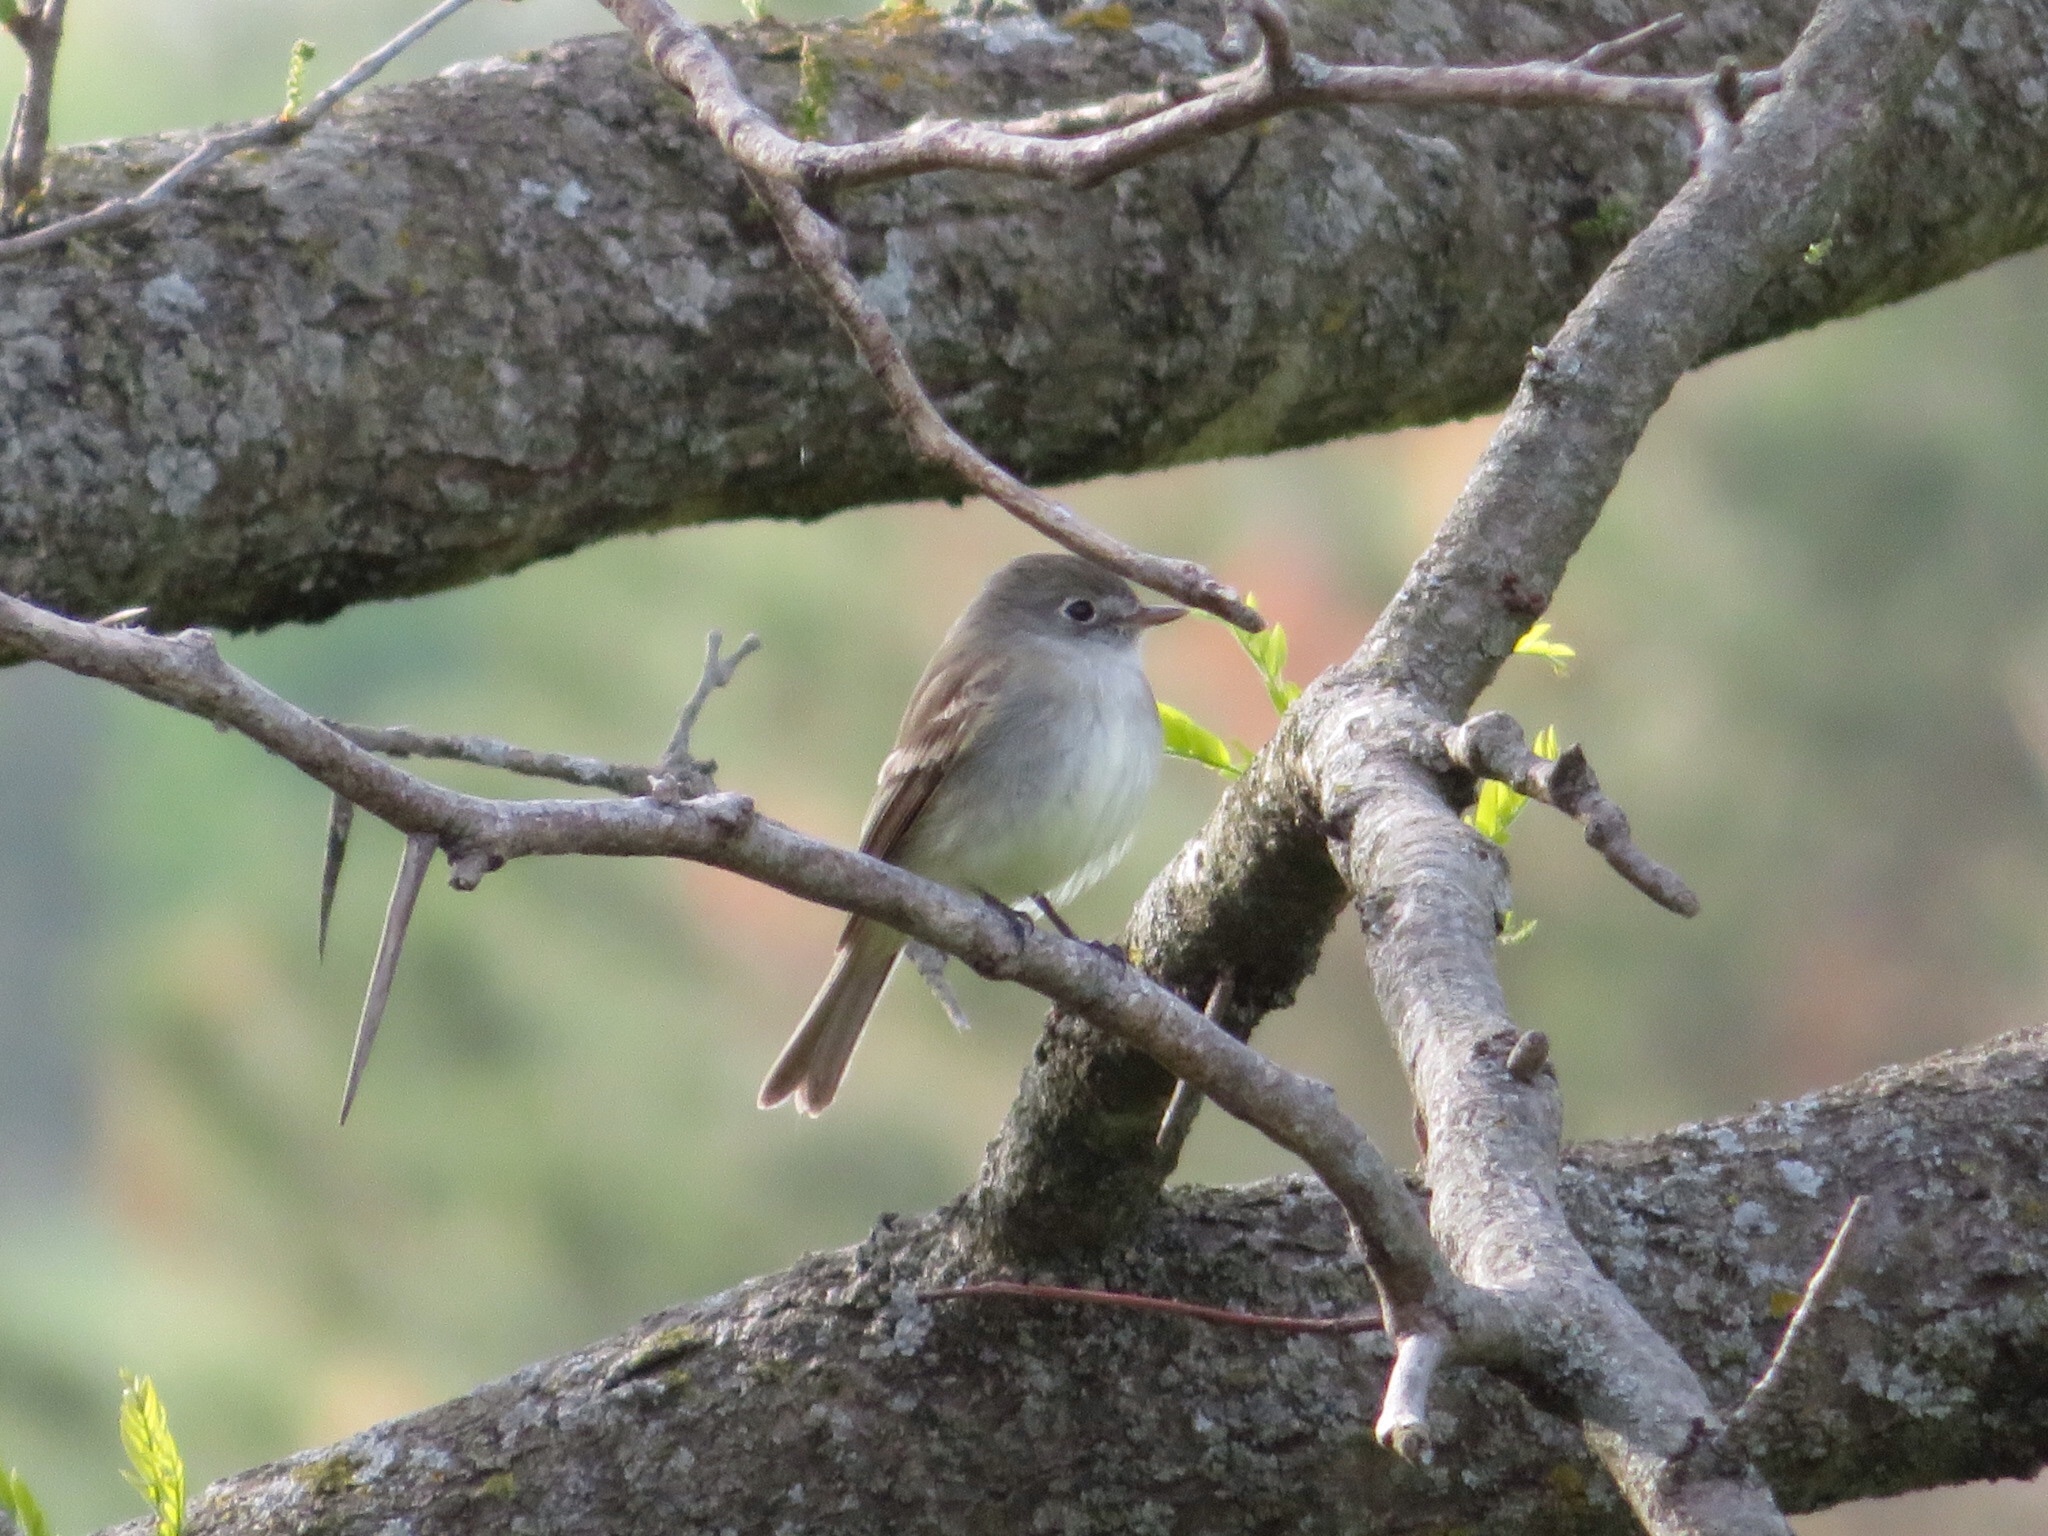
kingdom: Animalia
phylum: Chordata
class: Aves
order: Passeriformes
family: Tyrannidae
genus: Empidonax
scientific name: Empidonax minimus
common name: Least flycatcher
